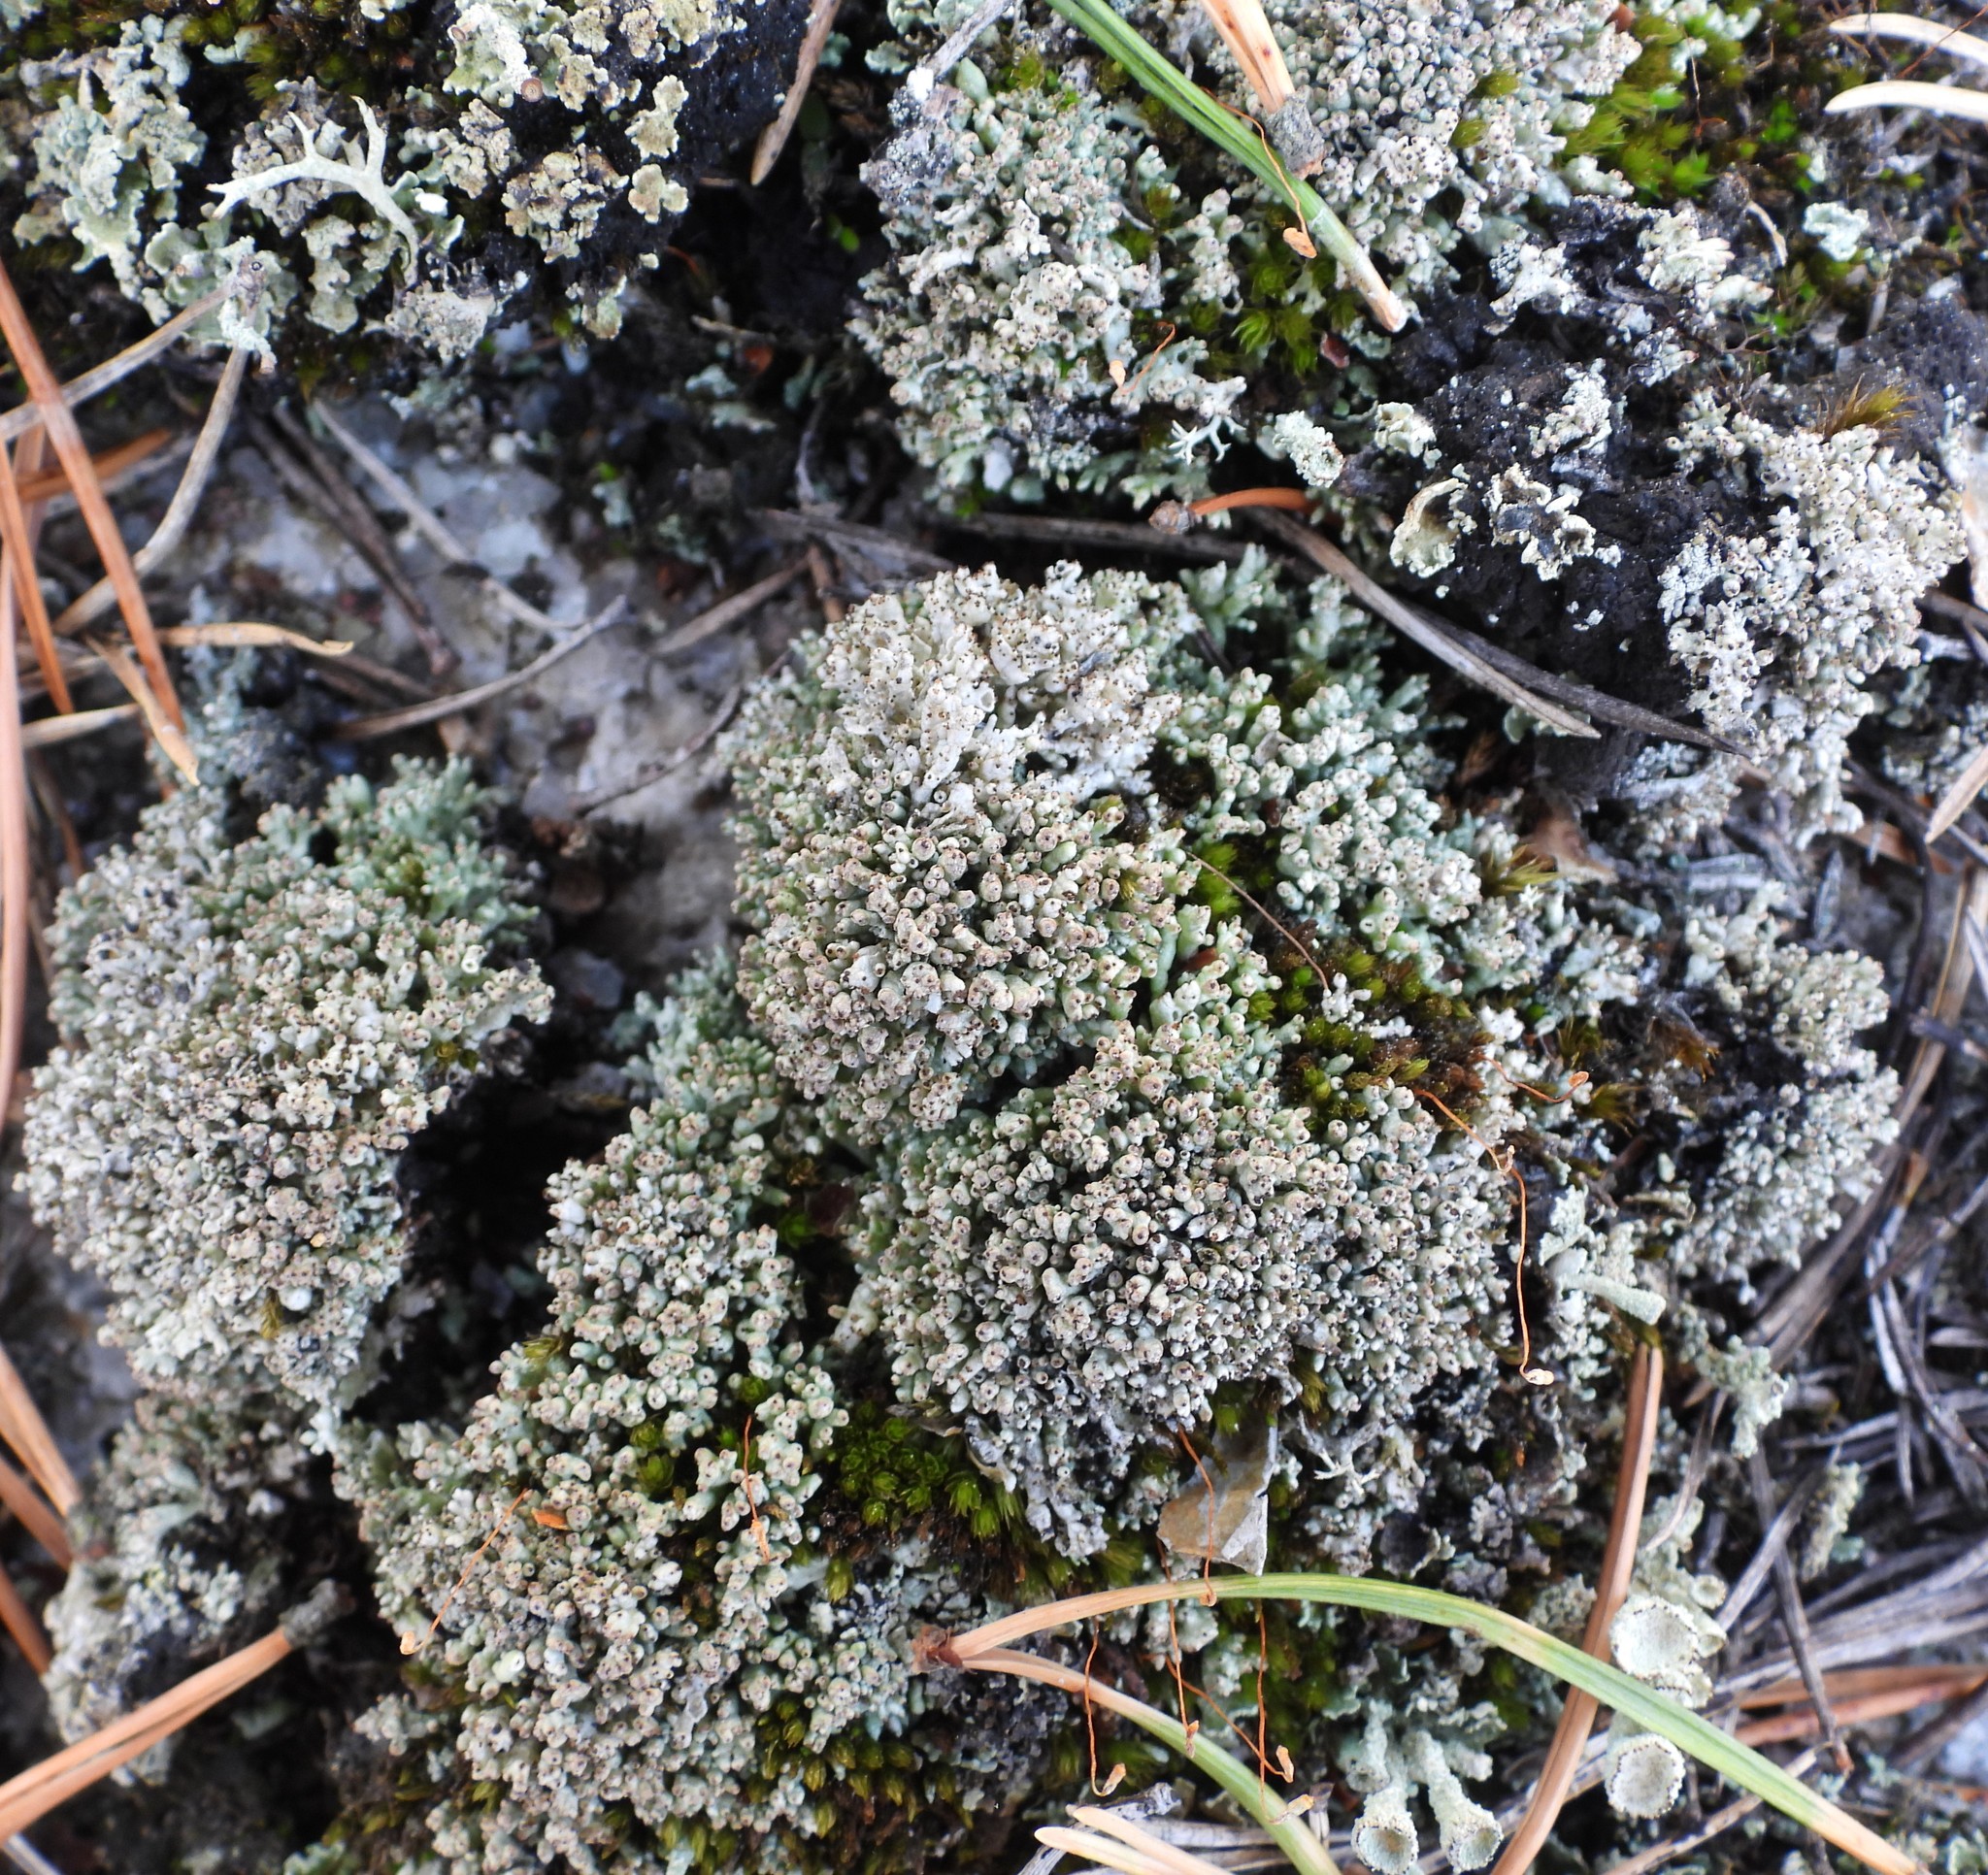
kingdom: Fungi
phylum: Ascomycota
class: Lecanoromycetes
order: Lecanorales
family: Cladoniaceae
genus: Pycnothelia
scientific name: Pycnothelia papillaria
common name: Nipple lichen
